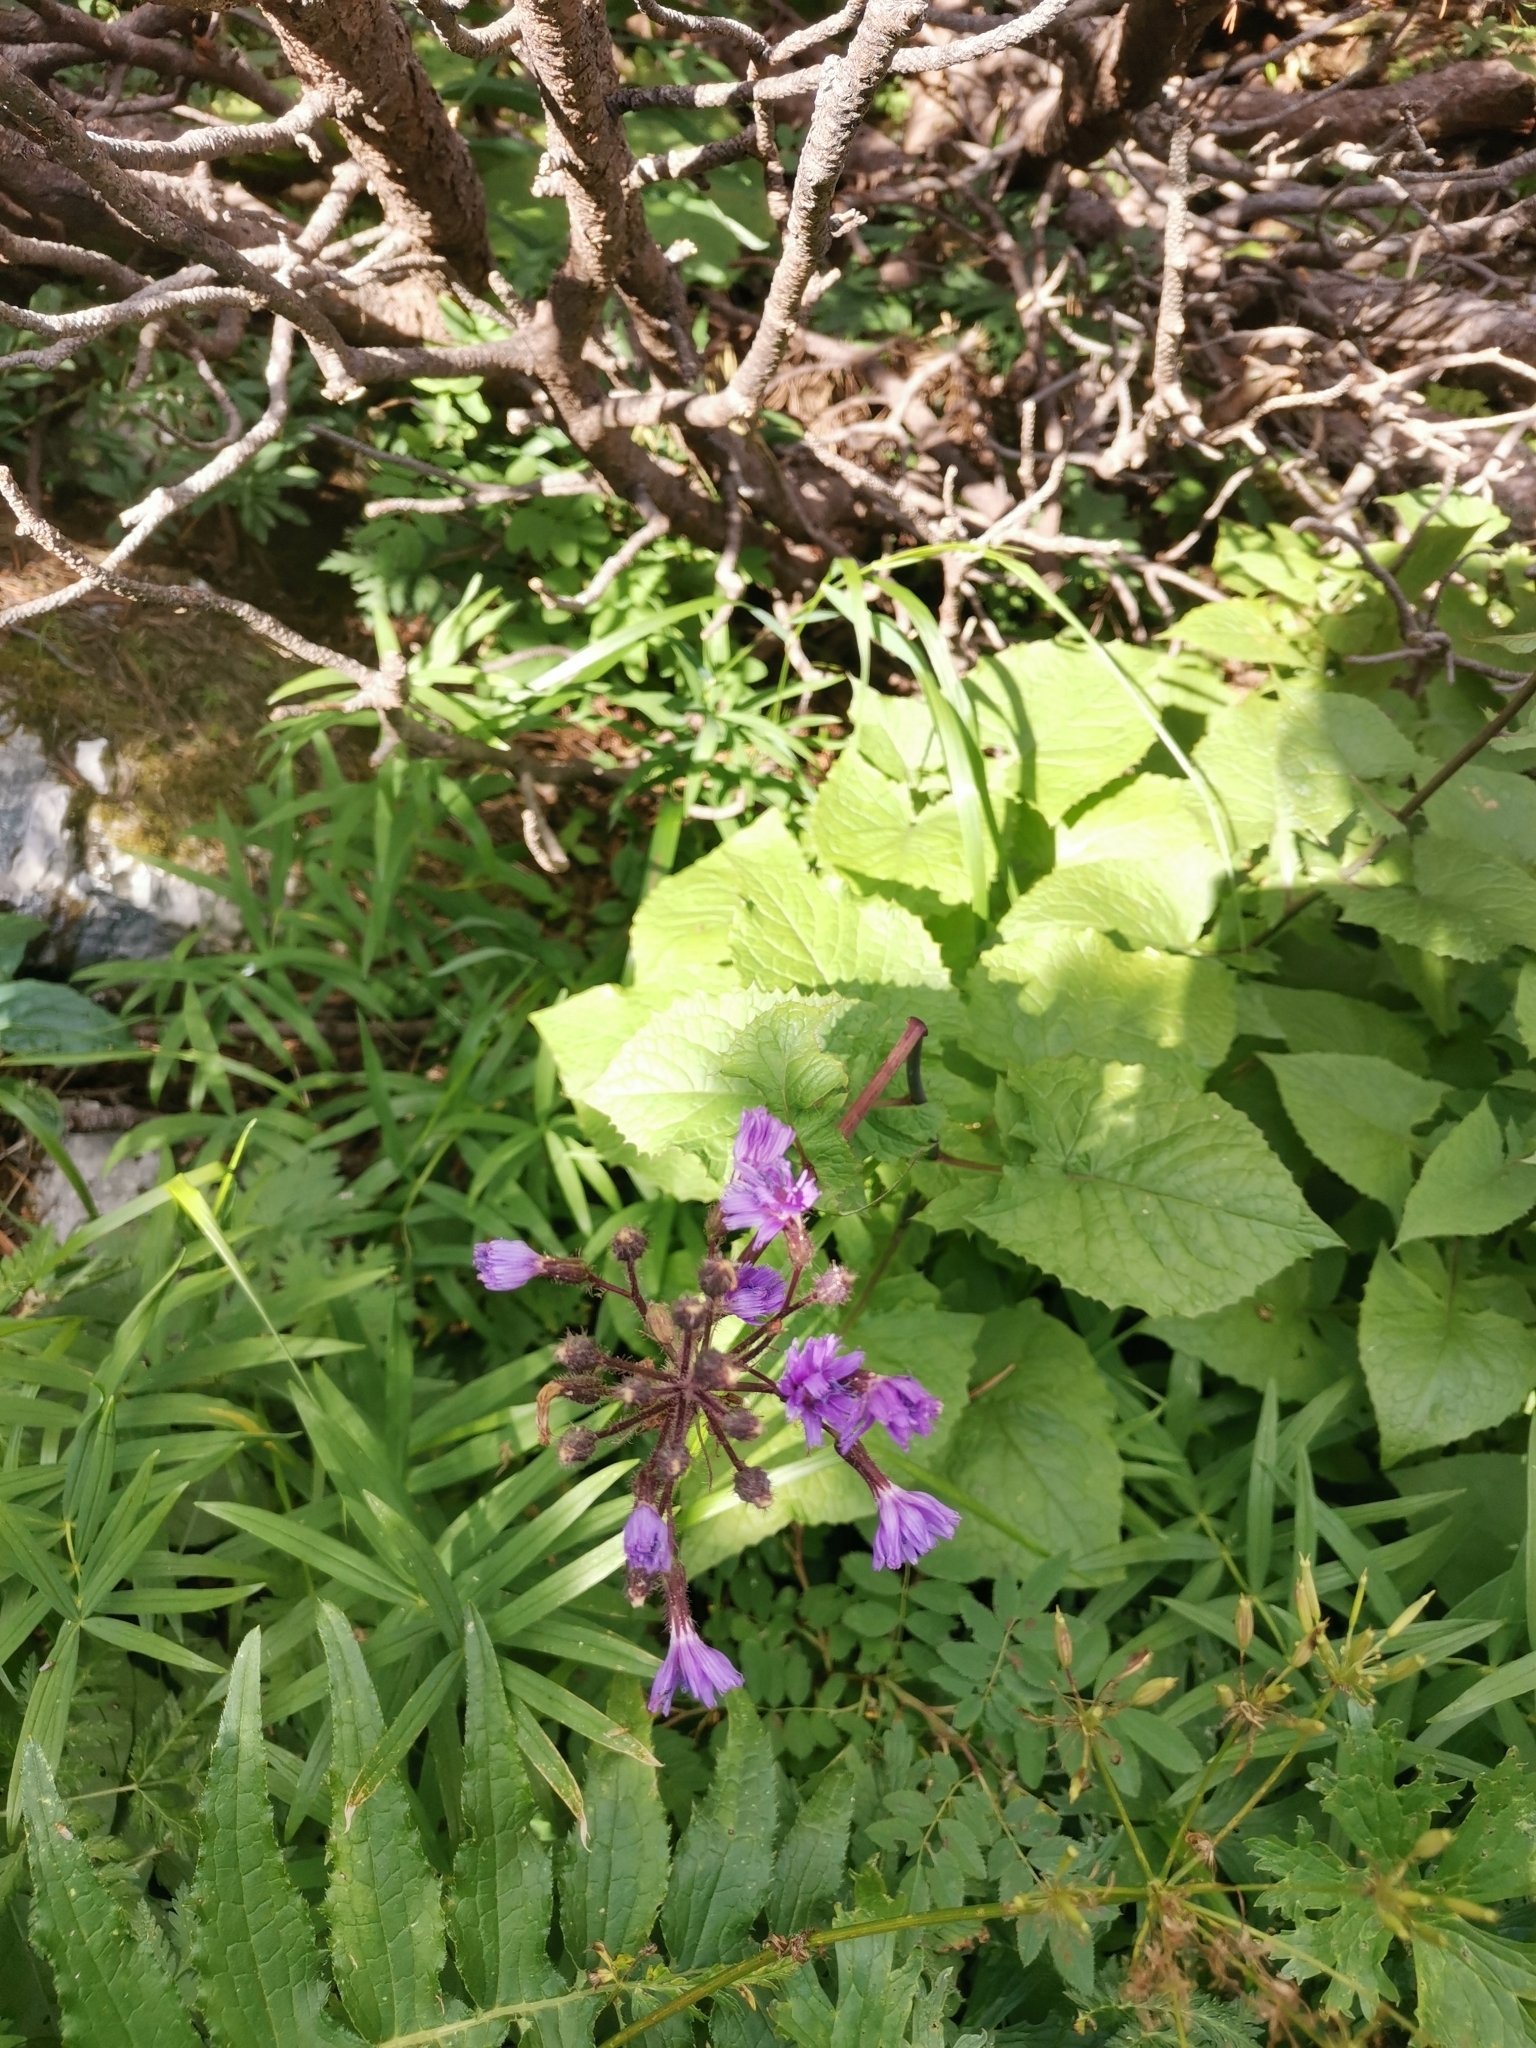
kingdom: Plantae
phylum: Tracheophyta
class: Magnoliopsida
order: Asterales
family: Asteraceae
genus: Cicerbita
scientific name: Cicerbita alpina
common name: Alpine blue-sow-thistle
